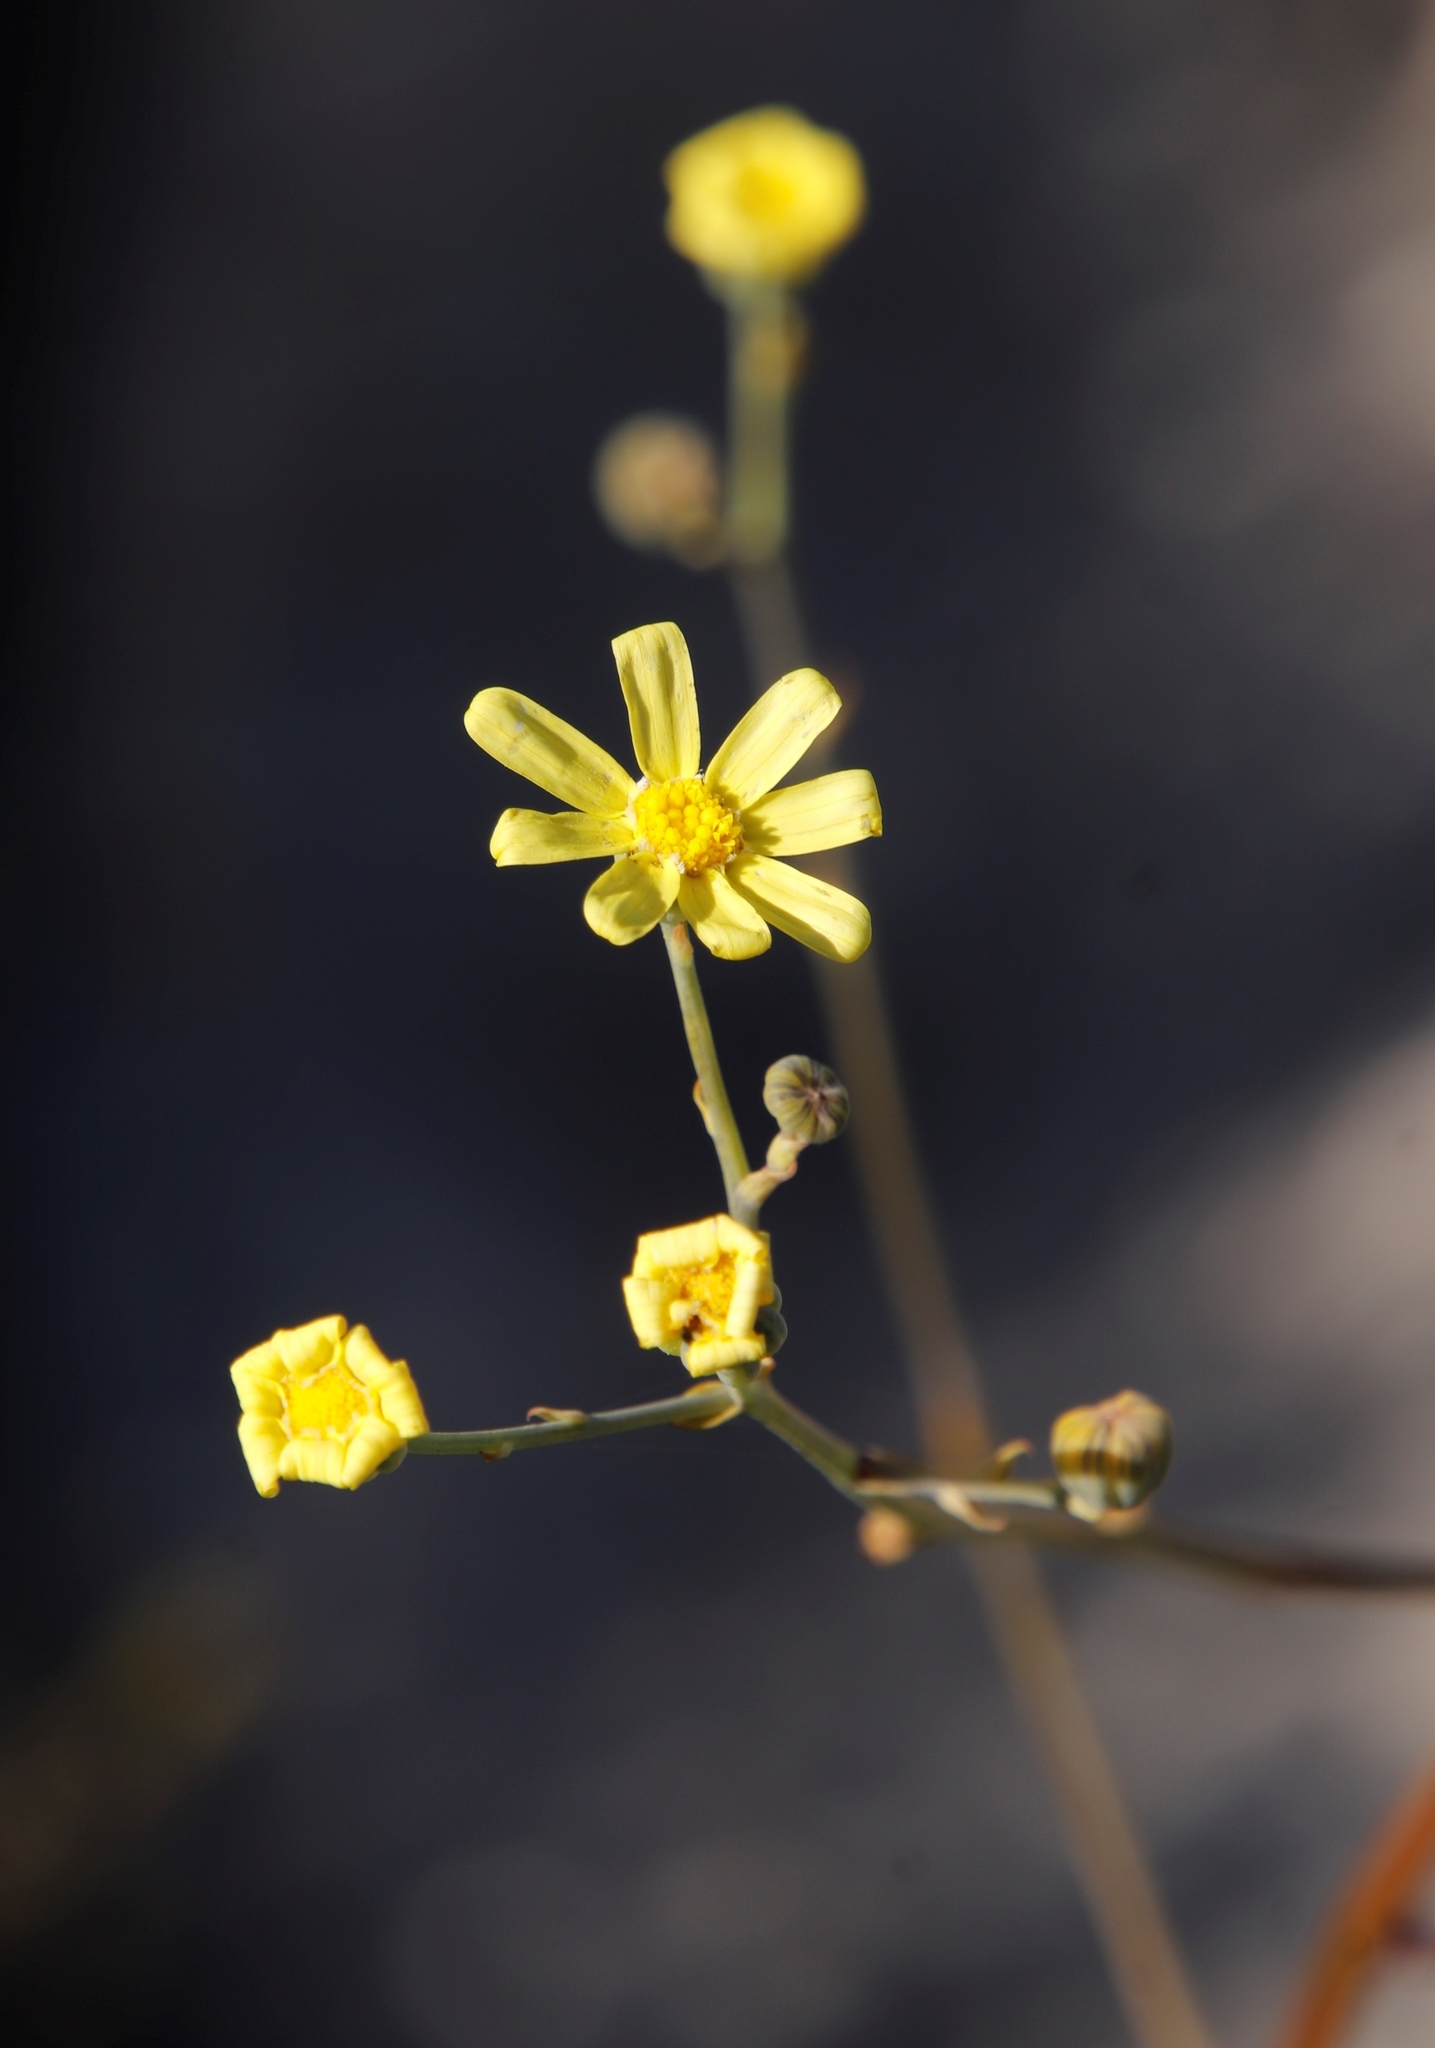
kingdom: Plantae
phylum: Tracheophyta
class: Magnoliopsida
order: Asterales
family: Asteraceae
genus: Othonna
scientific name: Othonna quinquedentata
